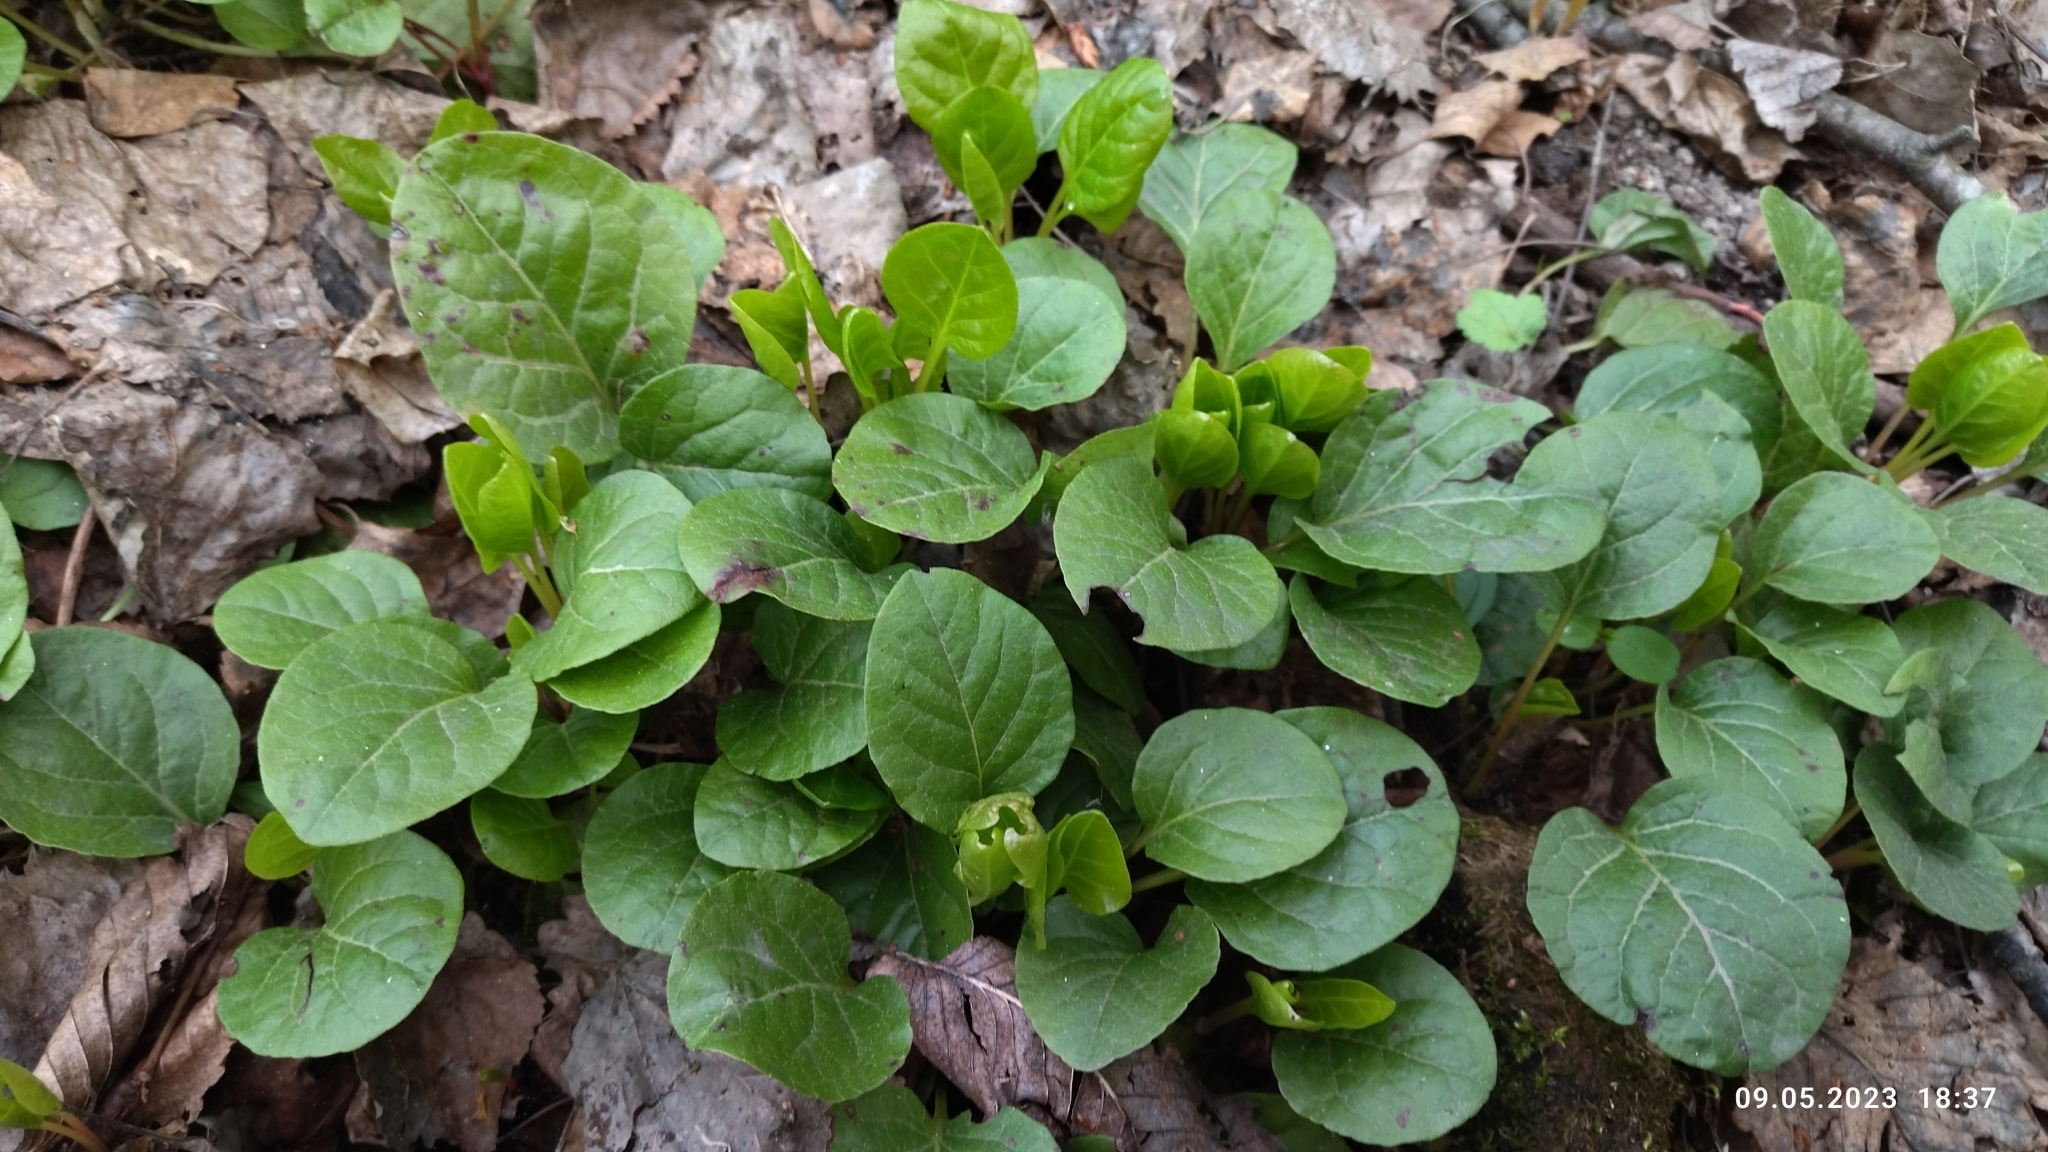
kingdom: Plantae
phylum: Tracheophyta
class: Magnoliopsida
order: Ericales
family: Ericaceae
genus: Pyrola
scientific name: Pyrola rotundifolia
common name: Round-leaved wintergreen
